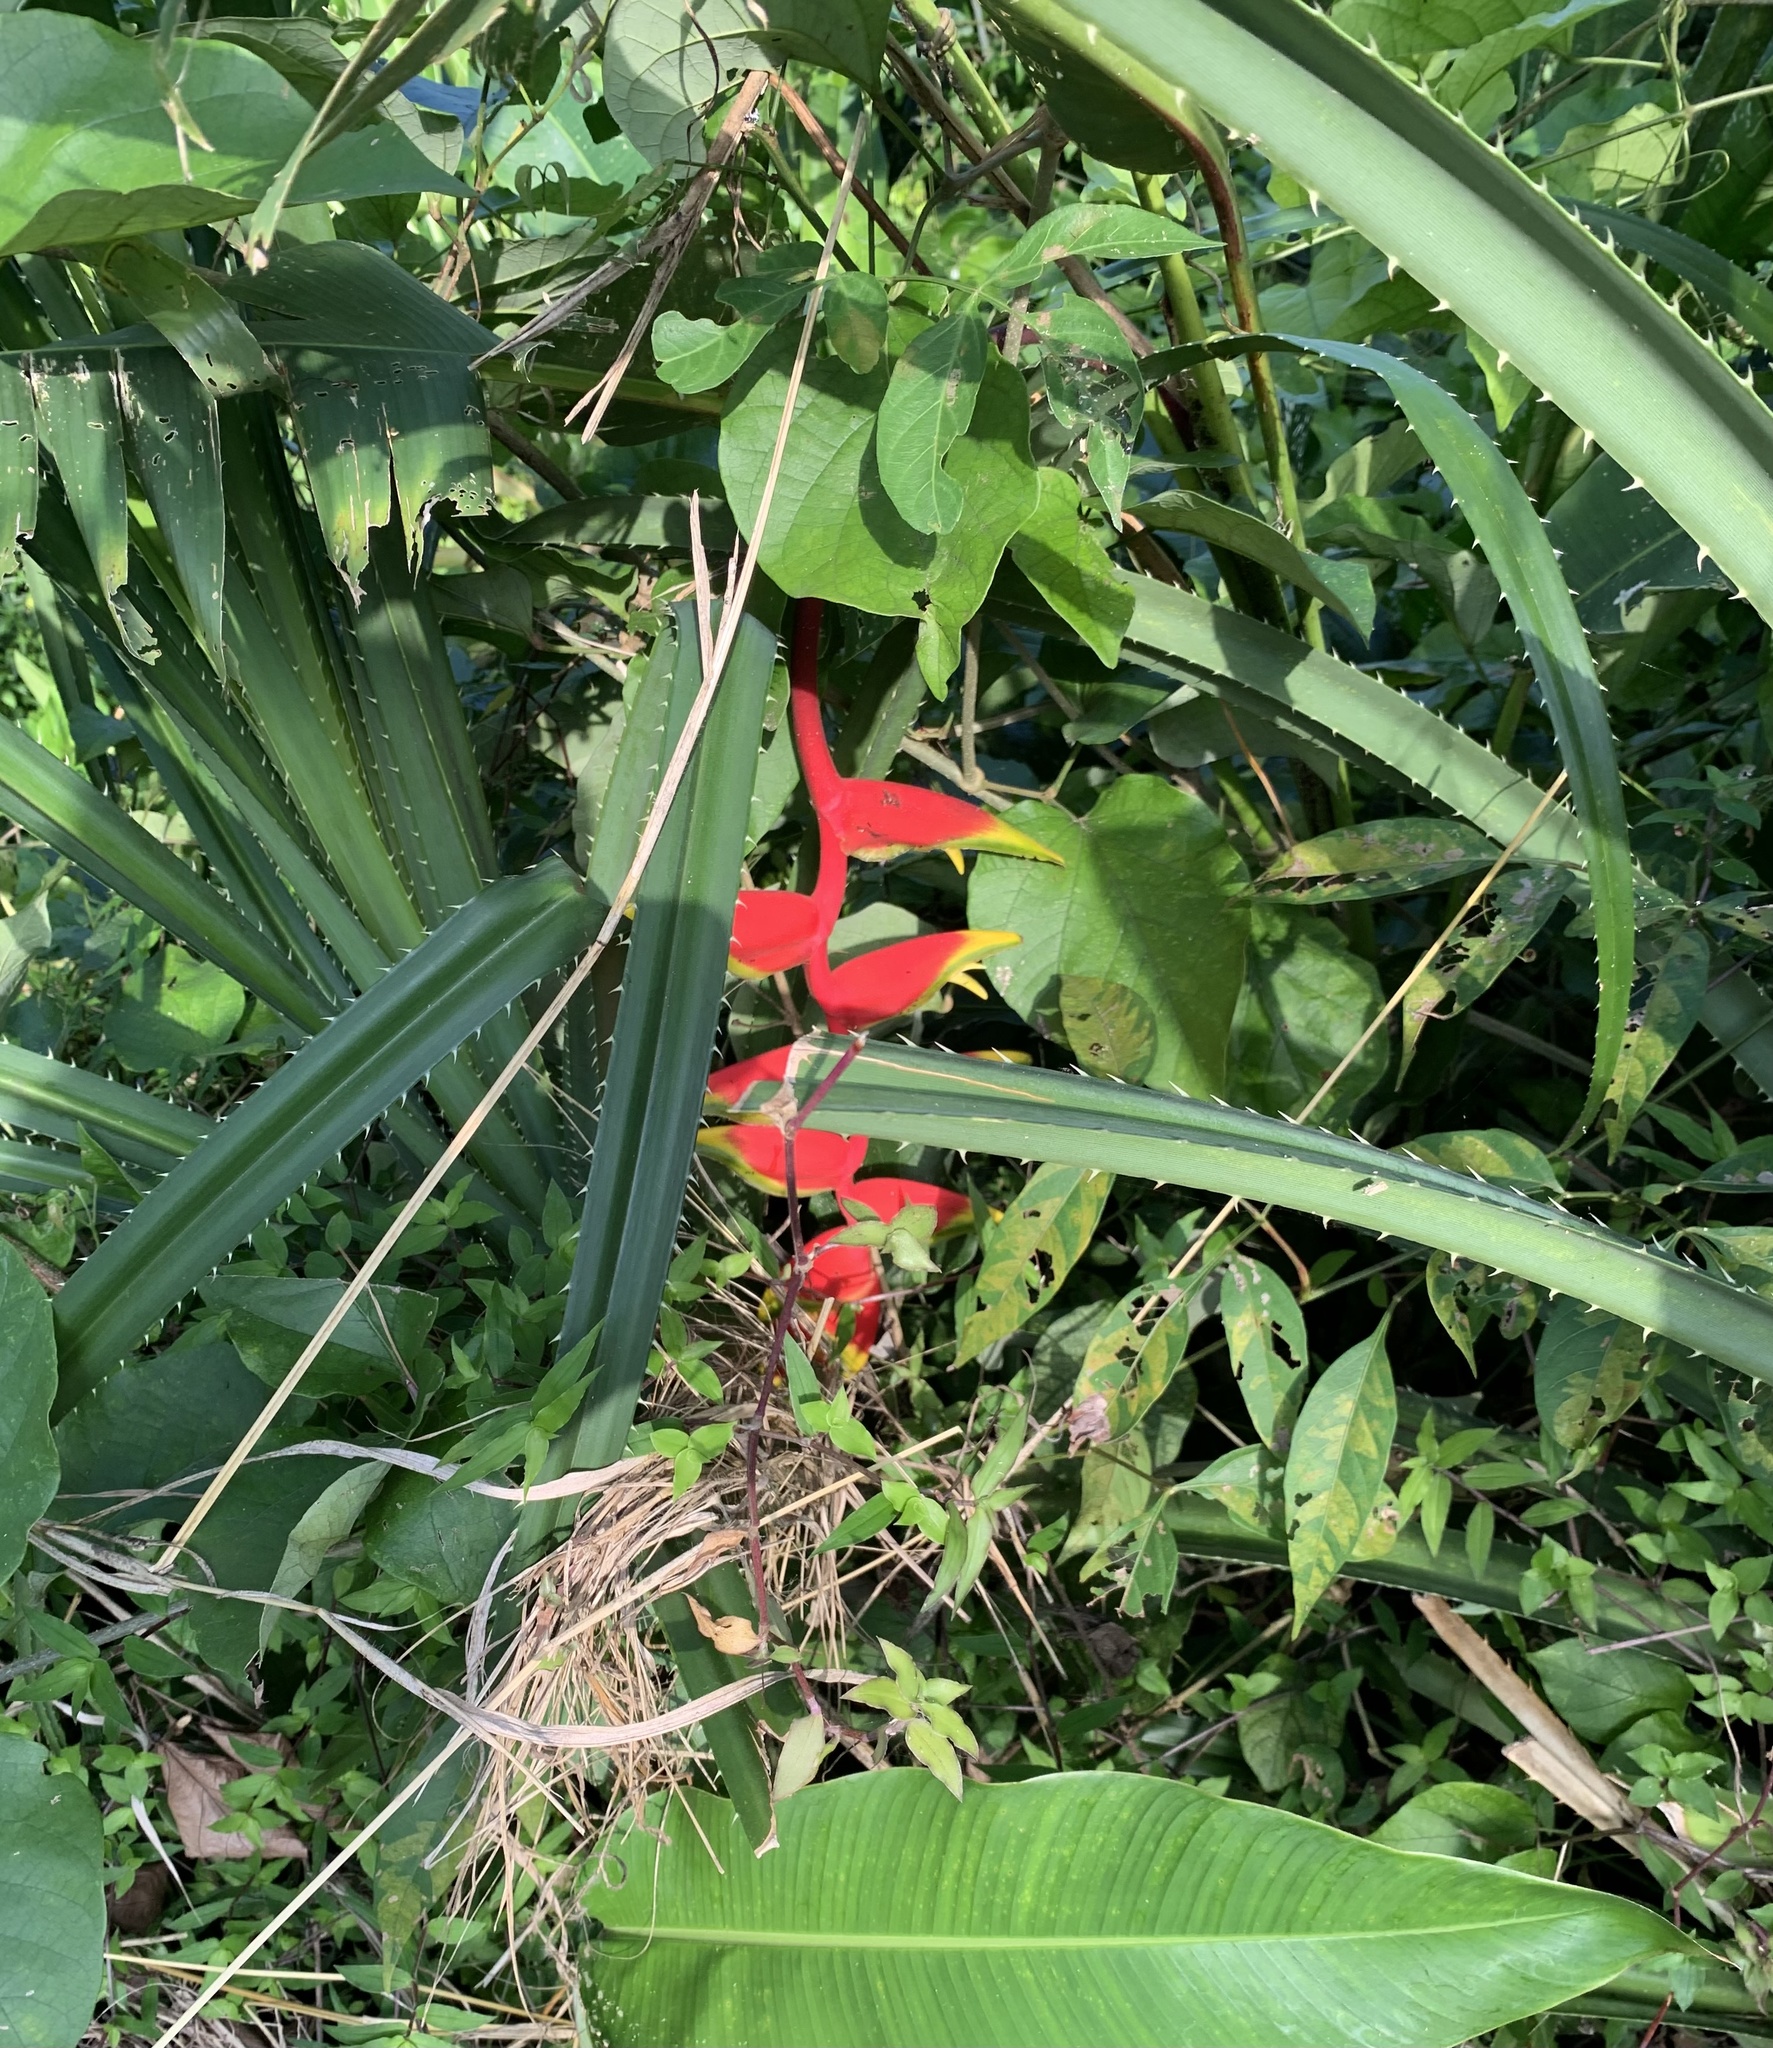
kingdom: Plantae
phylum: Tracheophyta
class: Liliopsida
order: Zingiberales
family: Heliconiaceae
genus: Heliconia
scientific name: Heliconia rostrata
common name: False bird of paradise
